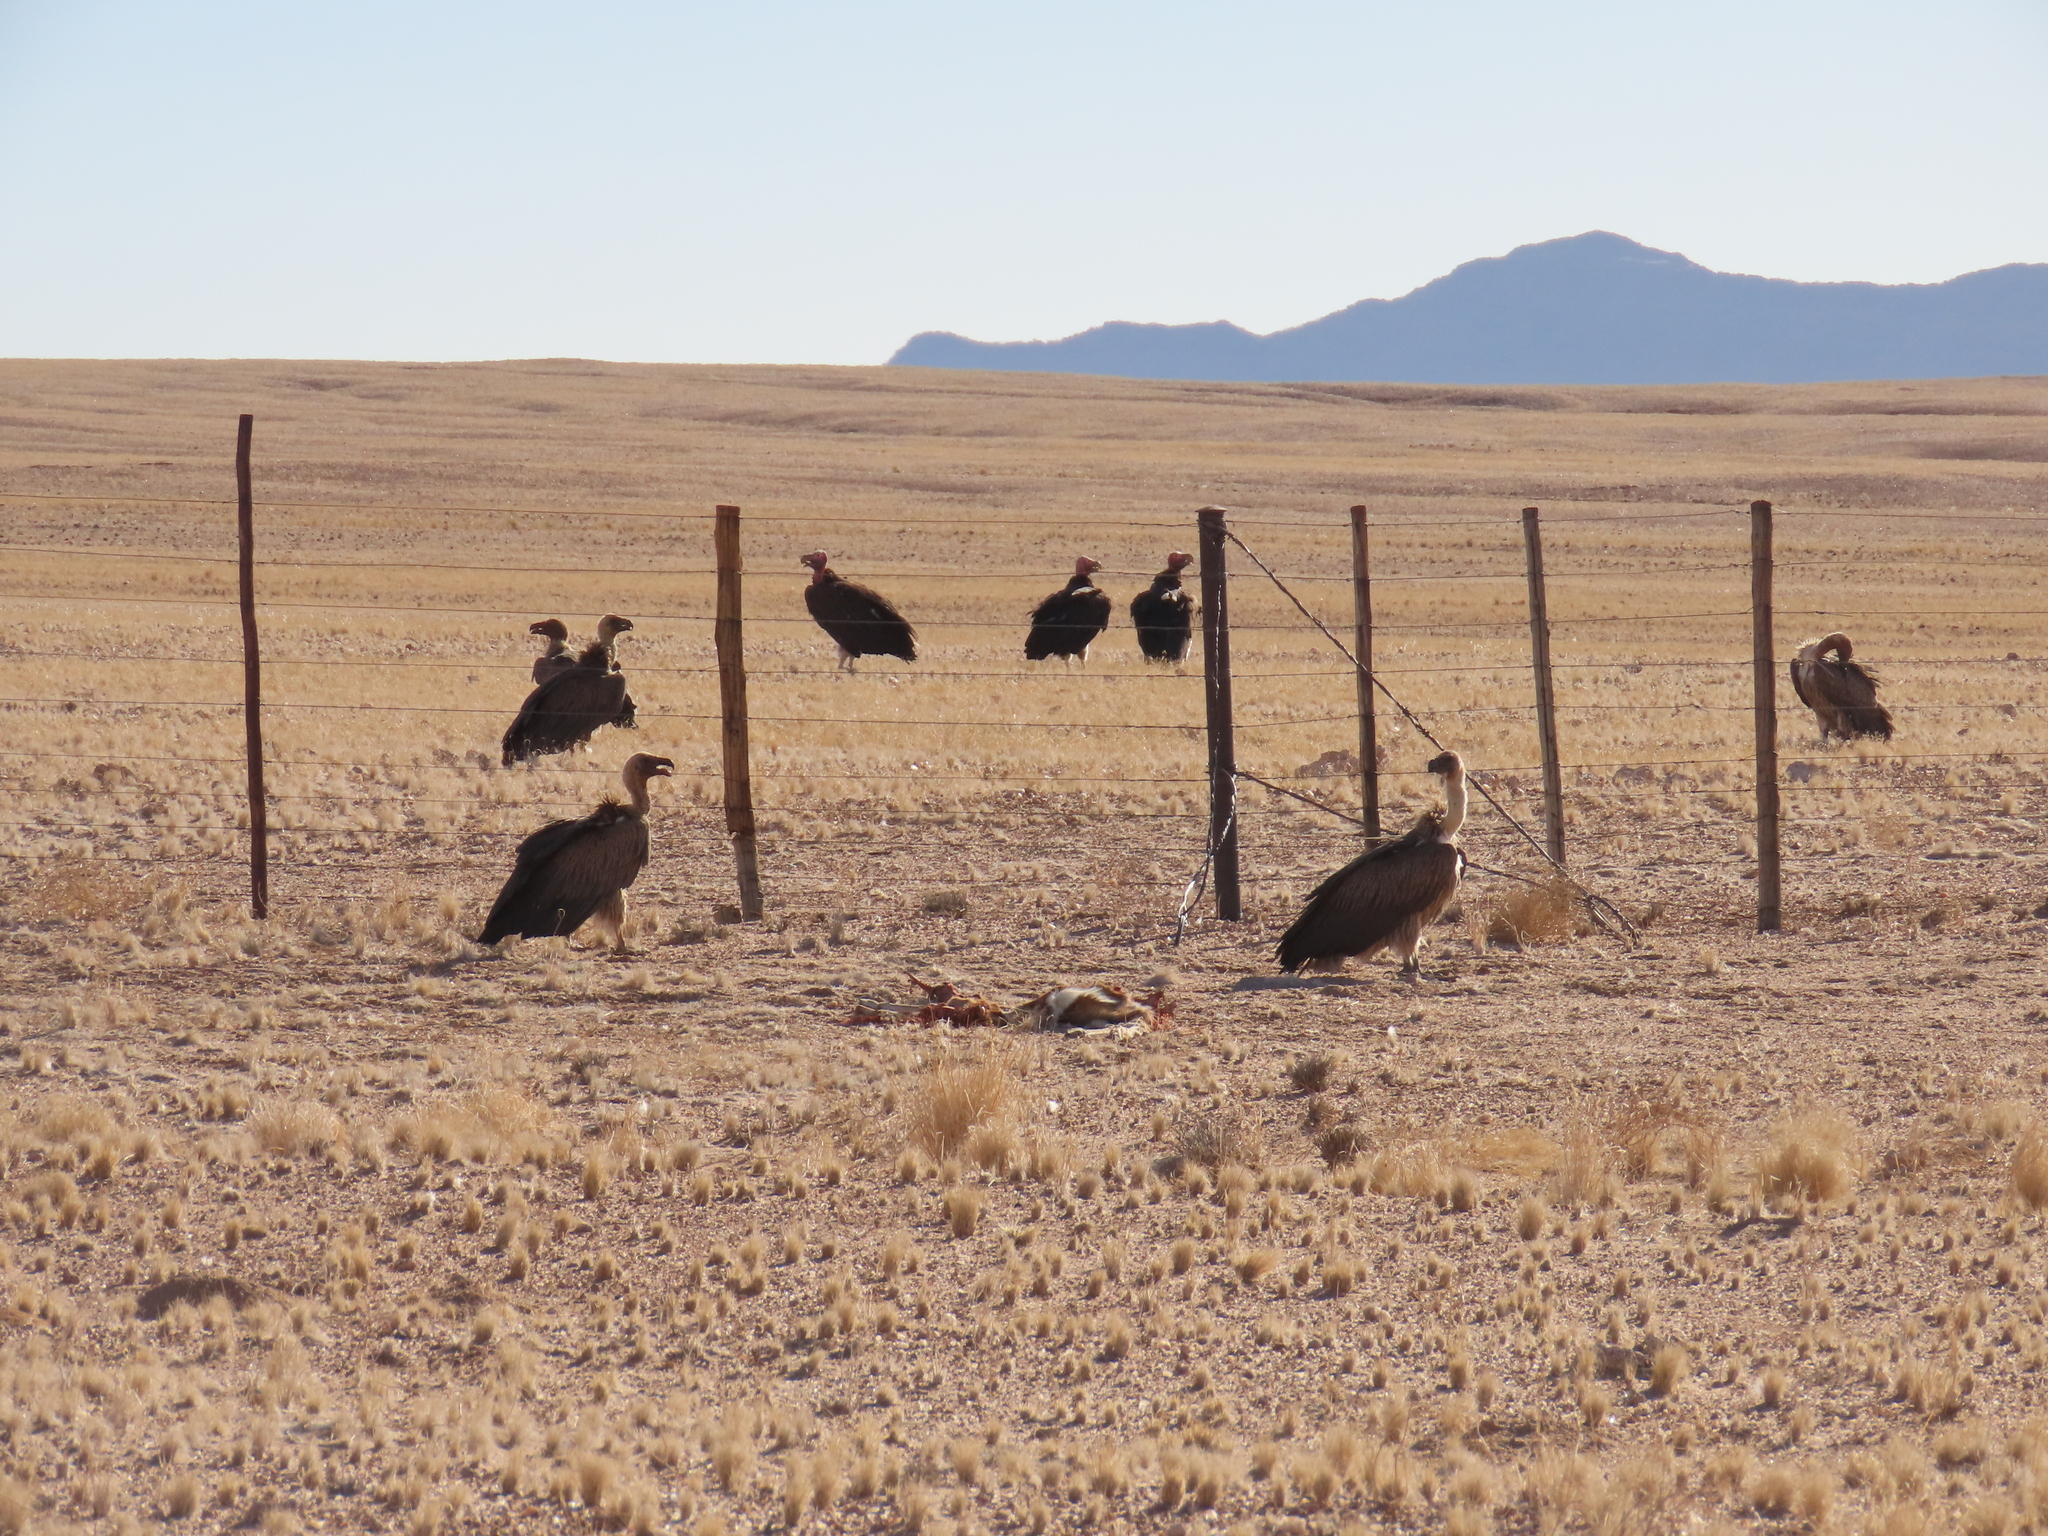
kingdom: Animalia
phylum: Chordata
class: Aves
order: Accipitriformes
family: Accipitridae
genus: Torgos
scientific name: Torgos tracheliotos
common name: Lappet-faced vulture
